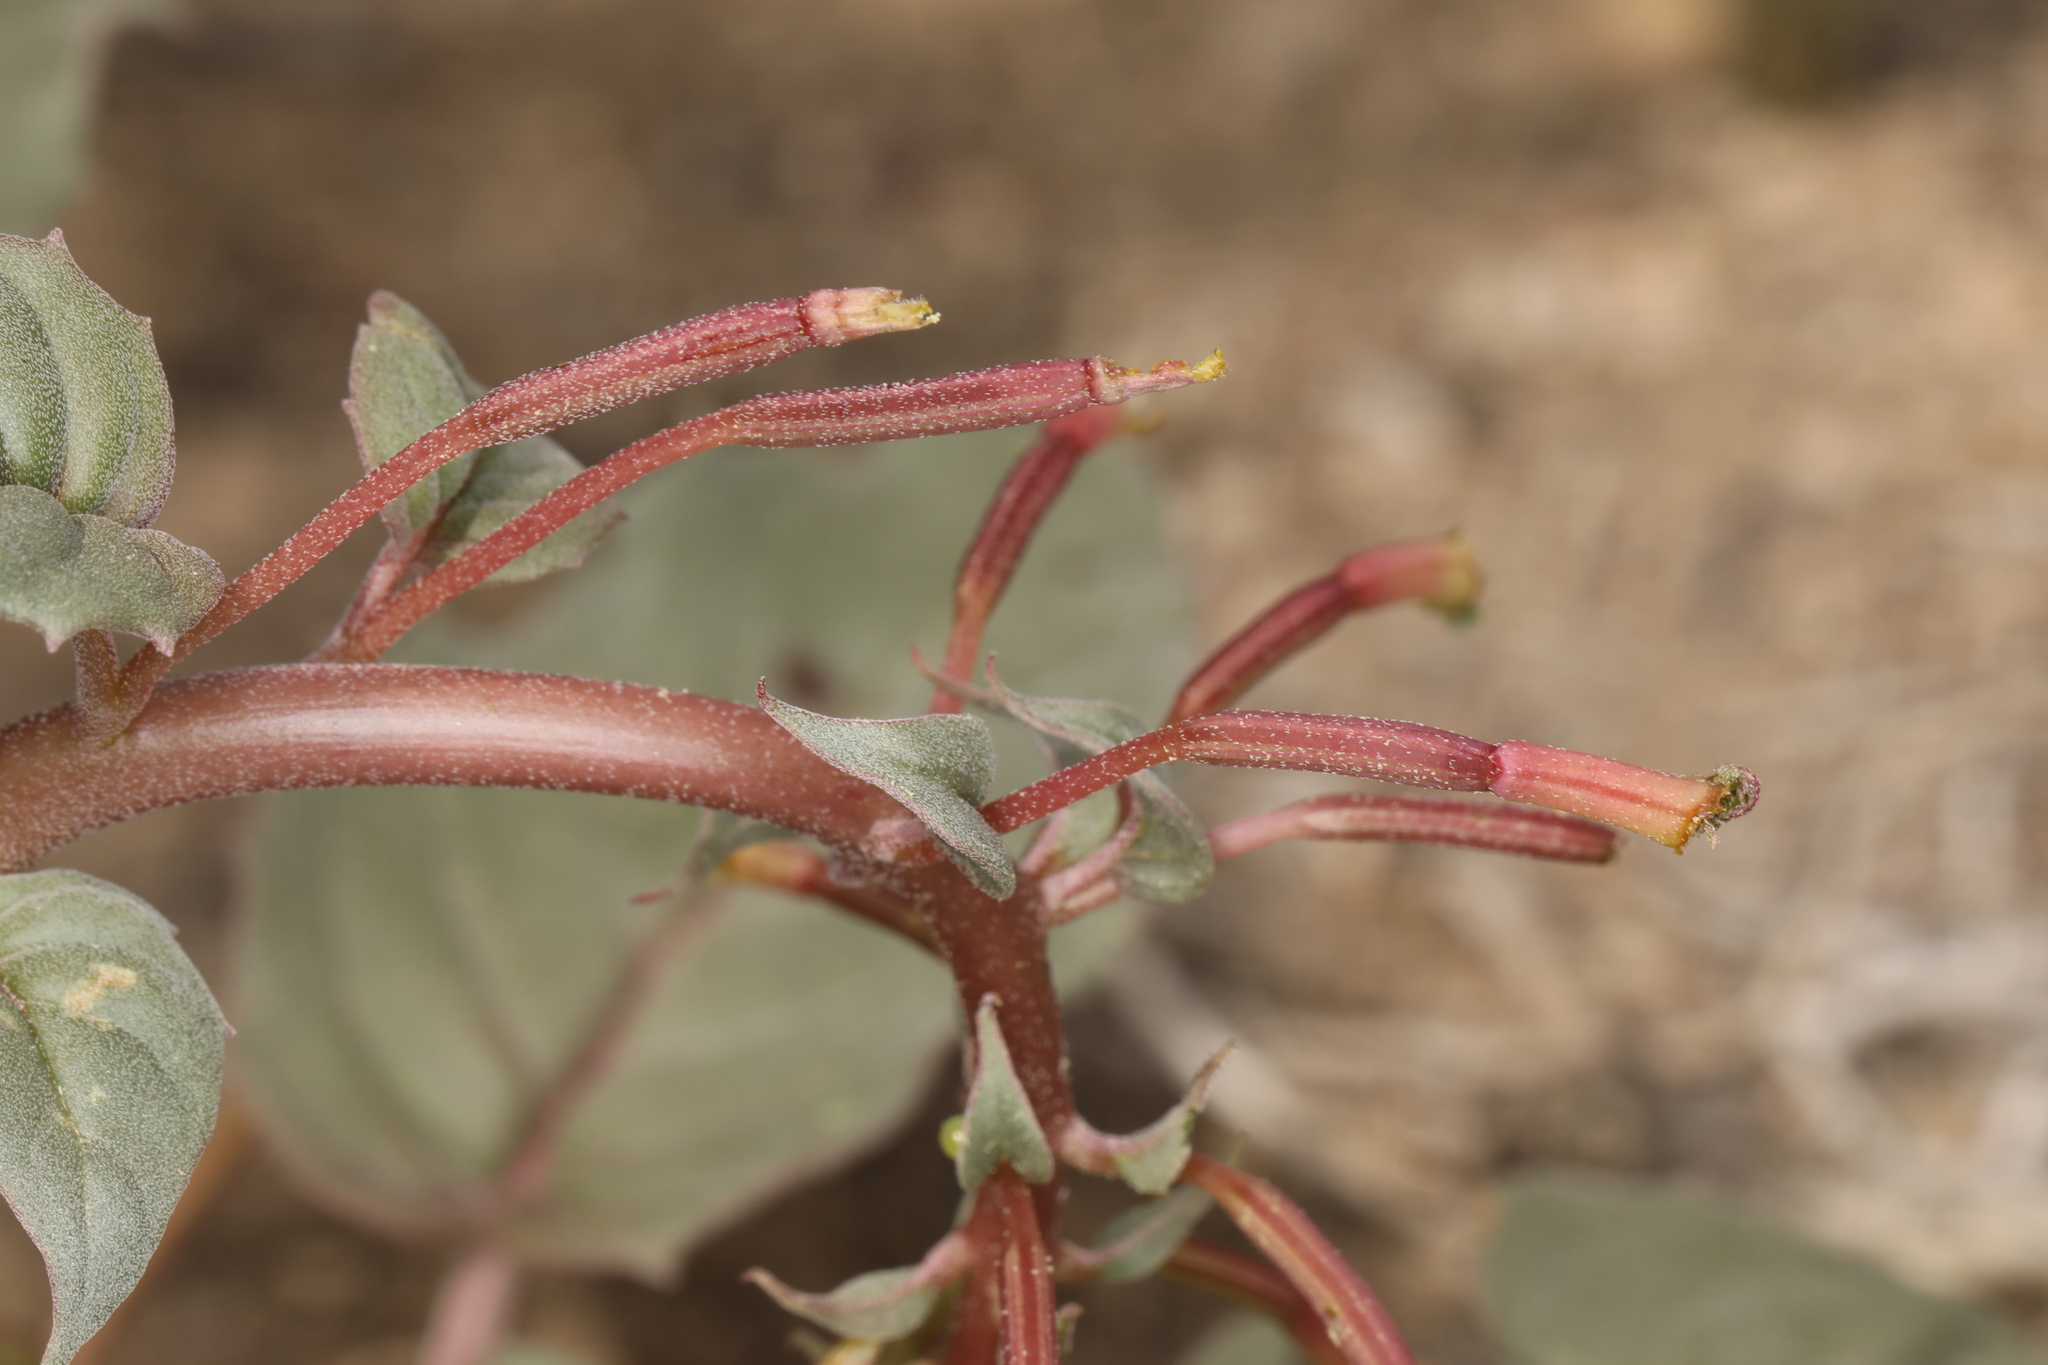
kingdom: Plantae
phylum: Tracheophyta
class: Magnoliopsida
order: Myrtales
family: Onagraceae
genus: Chylismia
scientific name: Chylismia claviformis
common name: Browneyes
